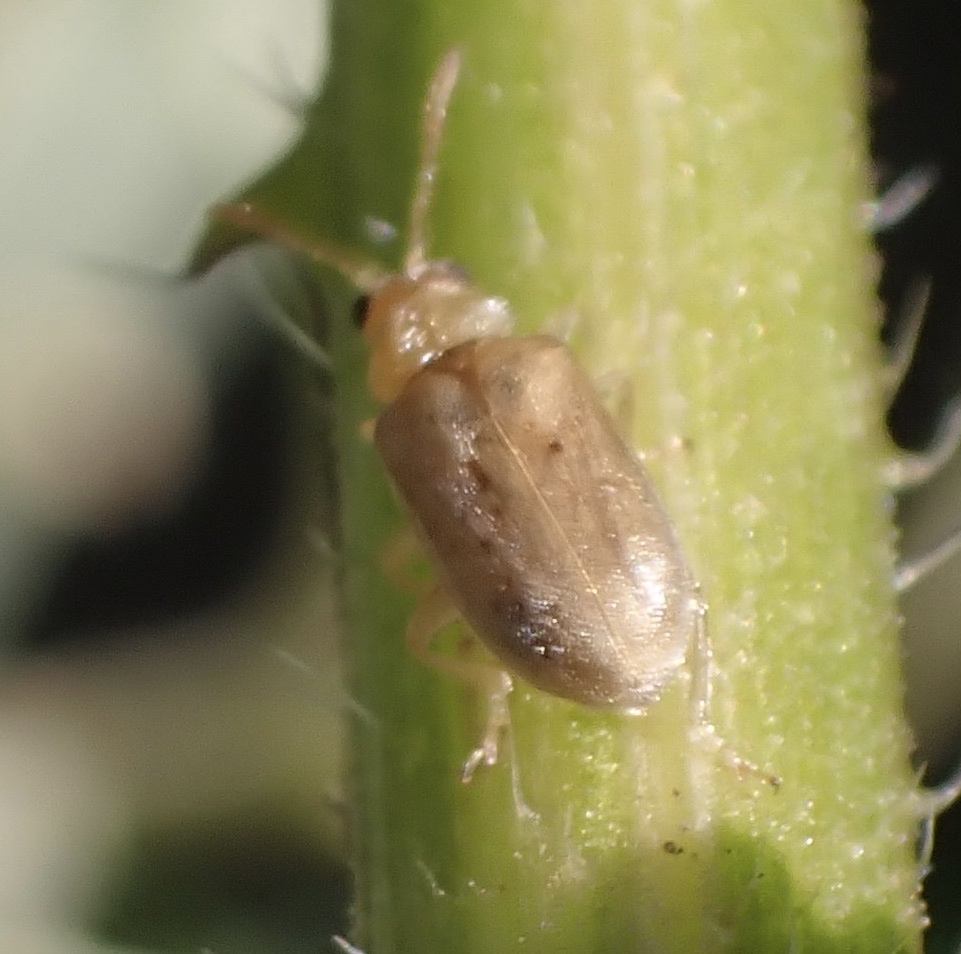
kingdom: Animalia
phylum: Arthropoda
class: Insecta
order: Coleoptera
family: Chrysomelidae
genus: Monoxia
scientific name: Monoxia obesula
